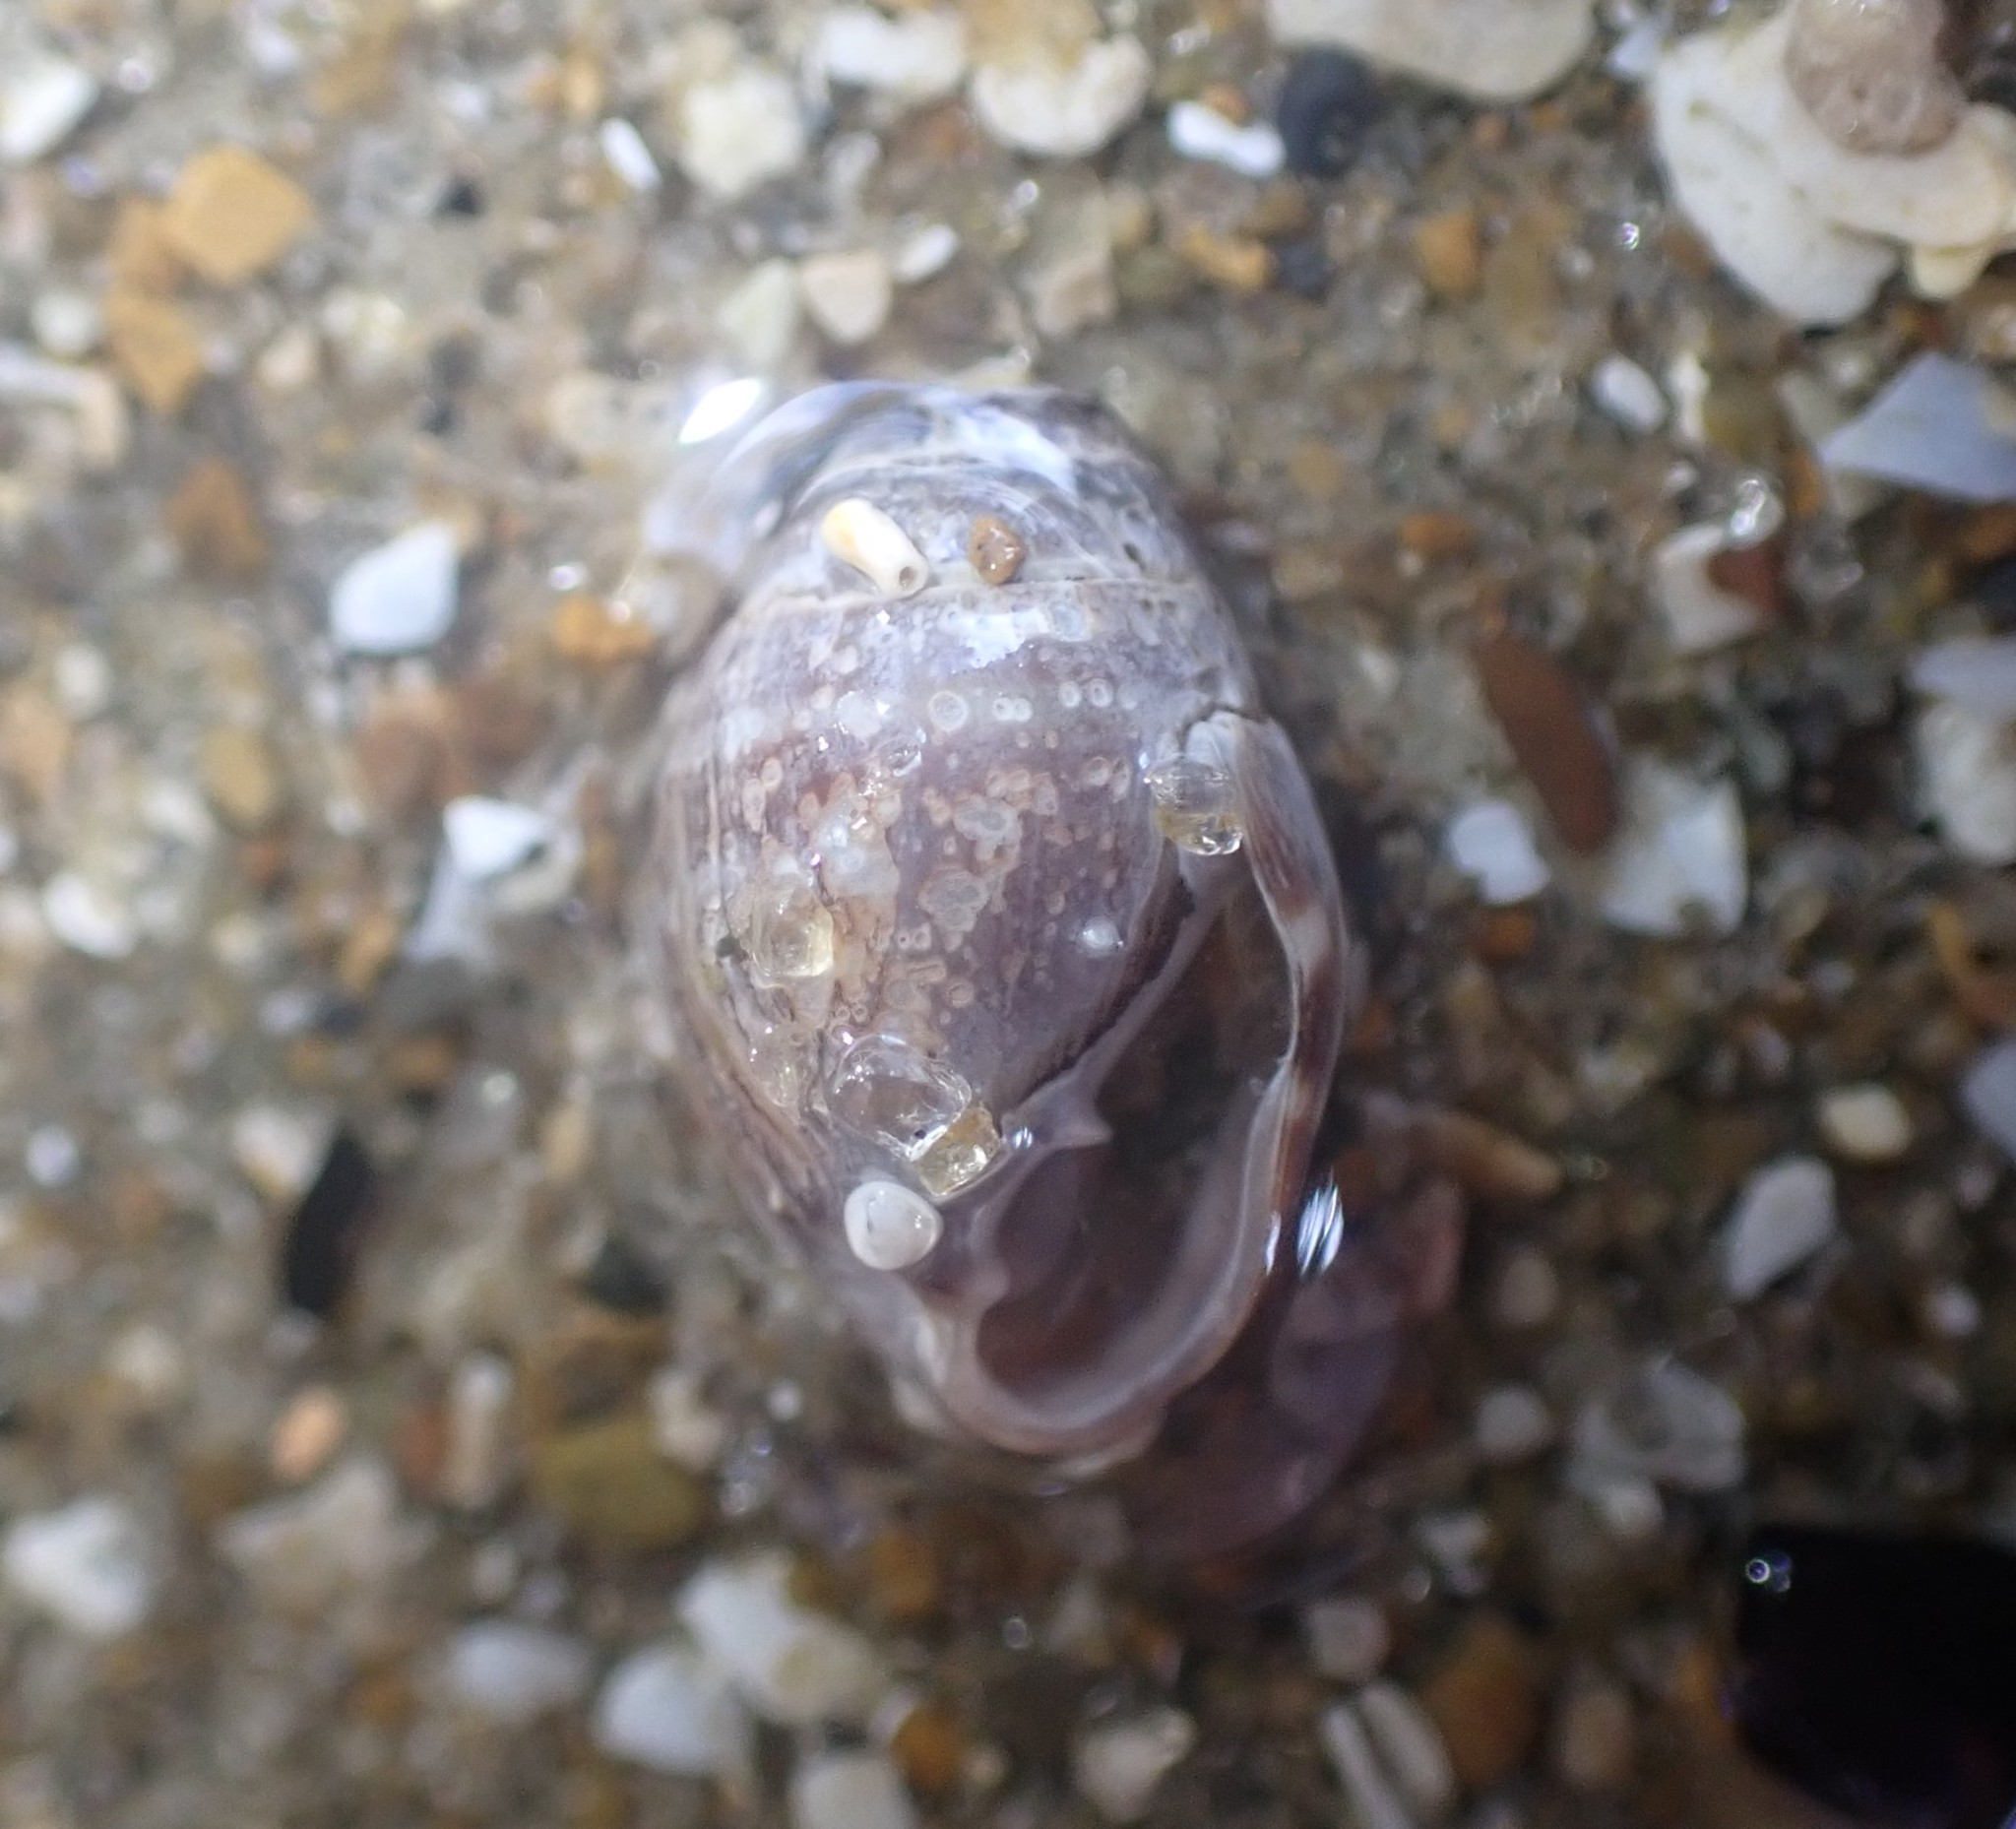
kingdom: Animalia
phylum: Mollusca
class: Gastropoda
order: Ellobiida
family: Ellobiidae
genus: Pleuroloba
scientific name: Pleuroloba costellaris
